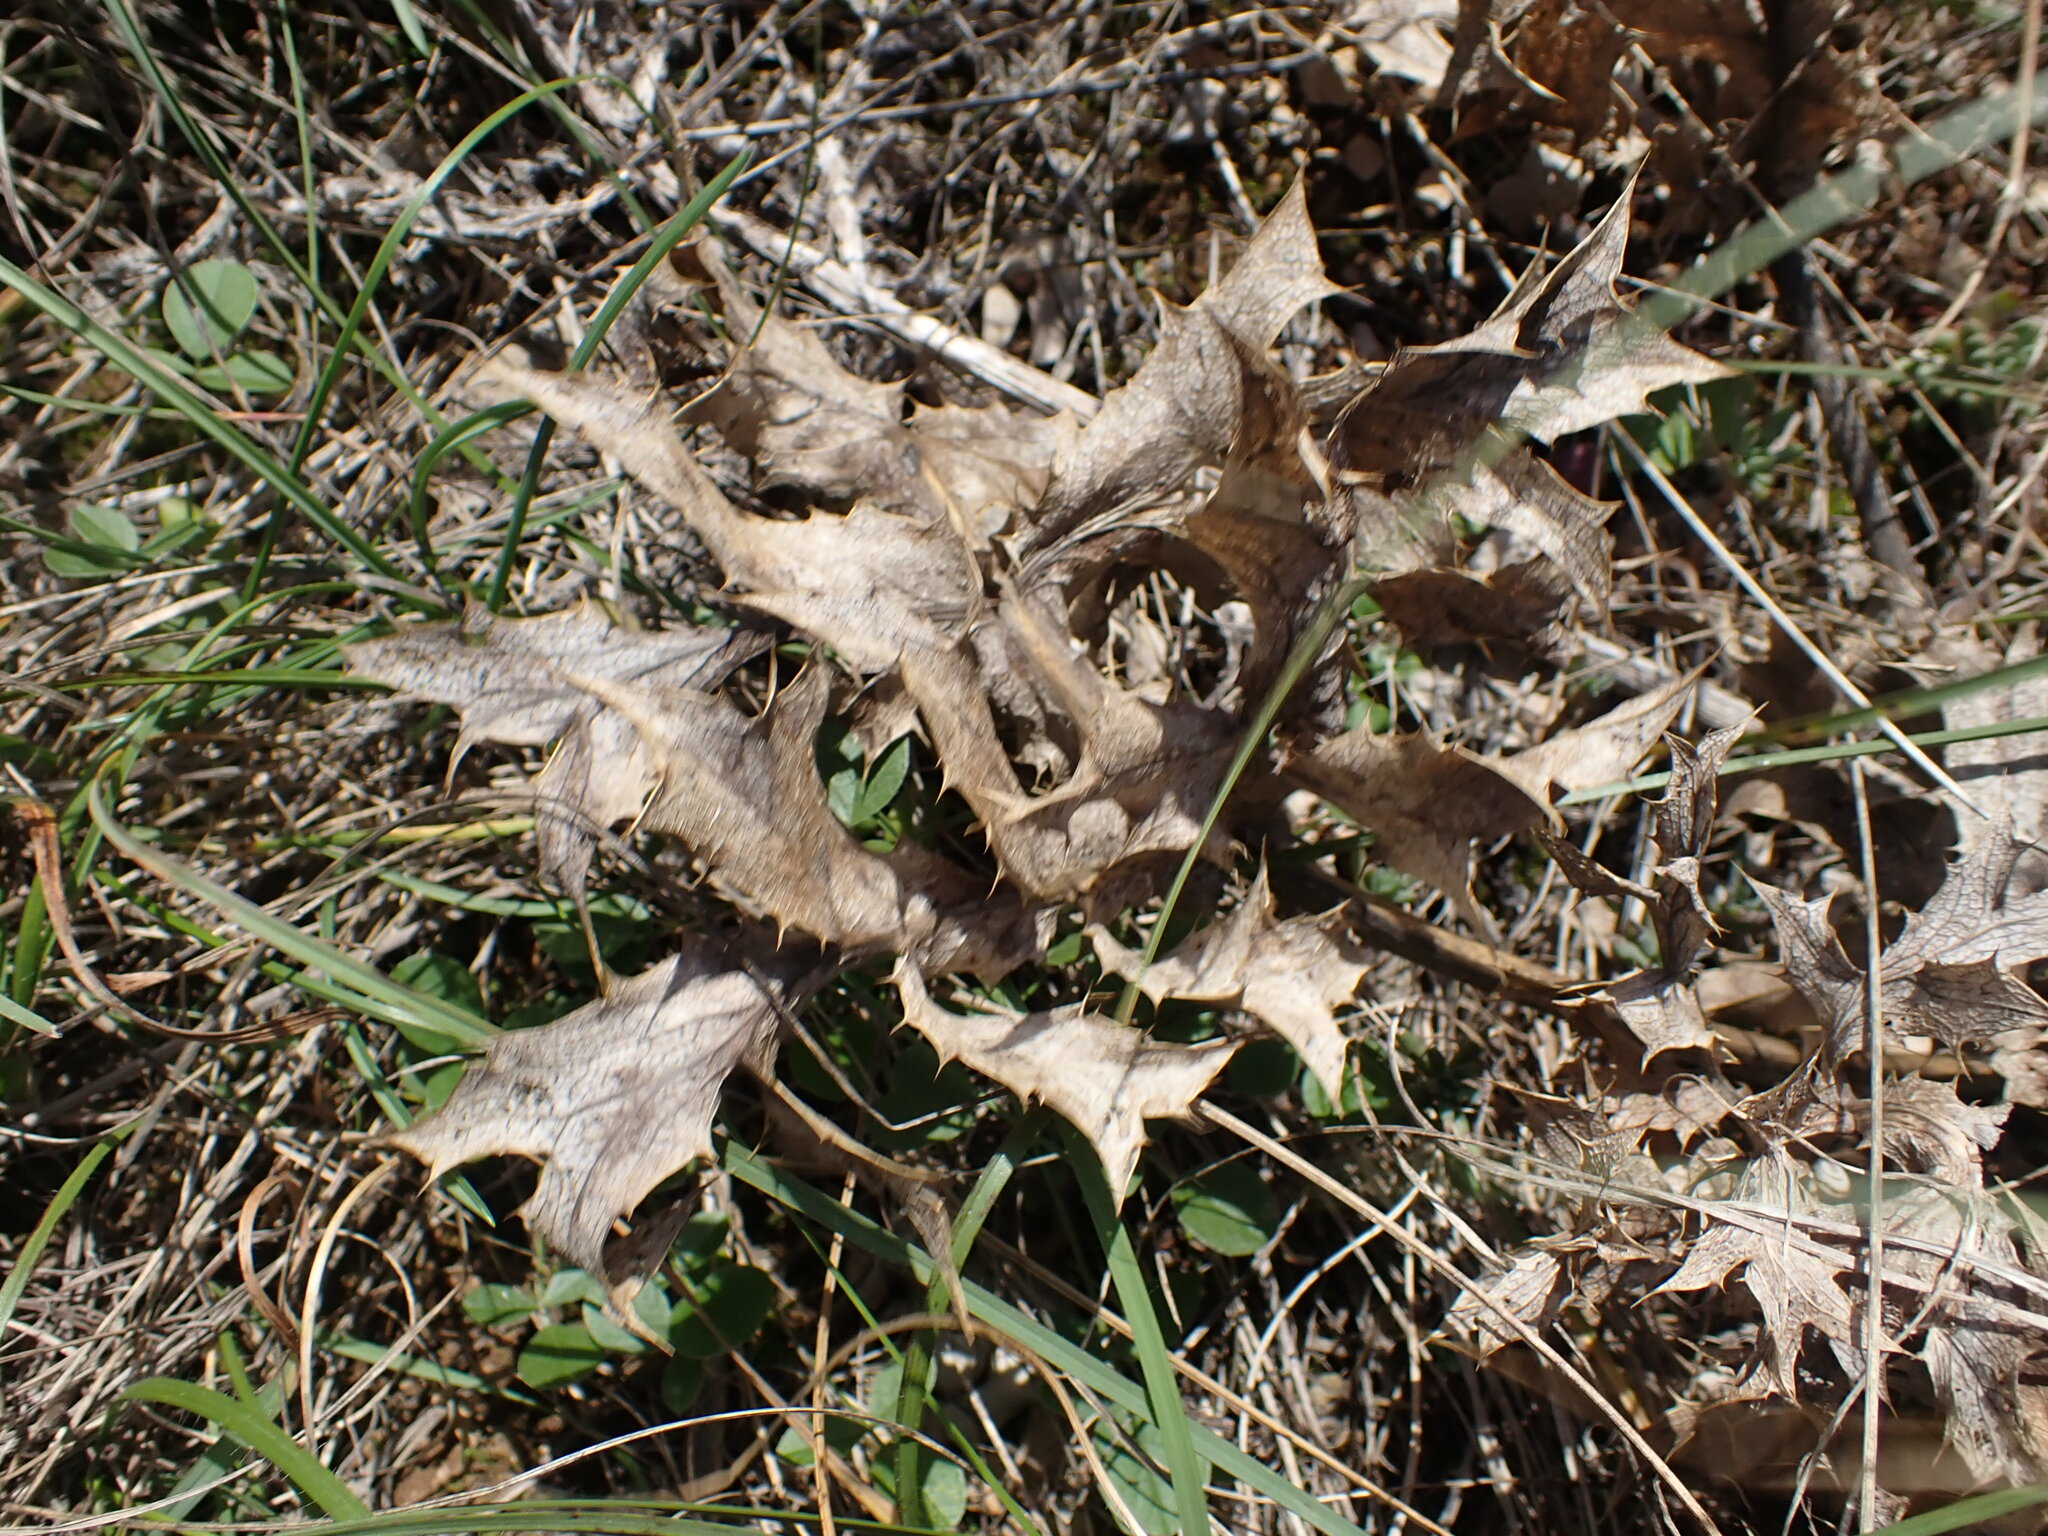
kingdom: Plantae
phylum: Tracheophyta
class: Magnoliopsida
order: Apiales
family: Apiaceae
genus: Eryngium
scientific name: Eryngium campestre
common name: Field eryngo
